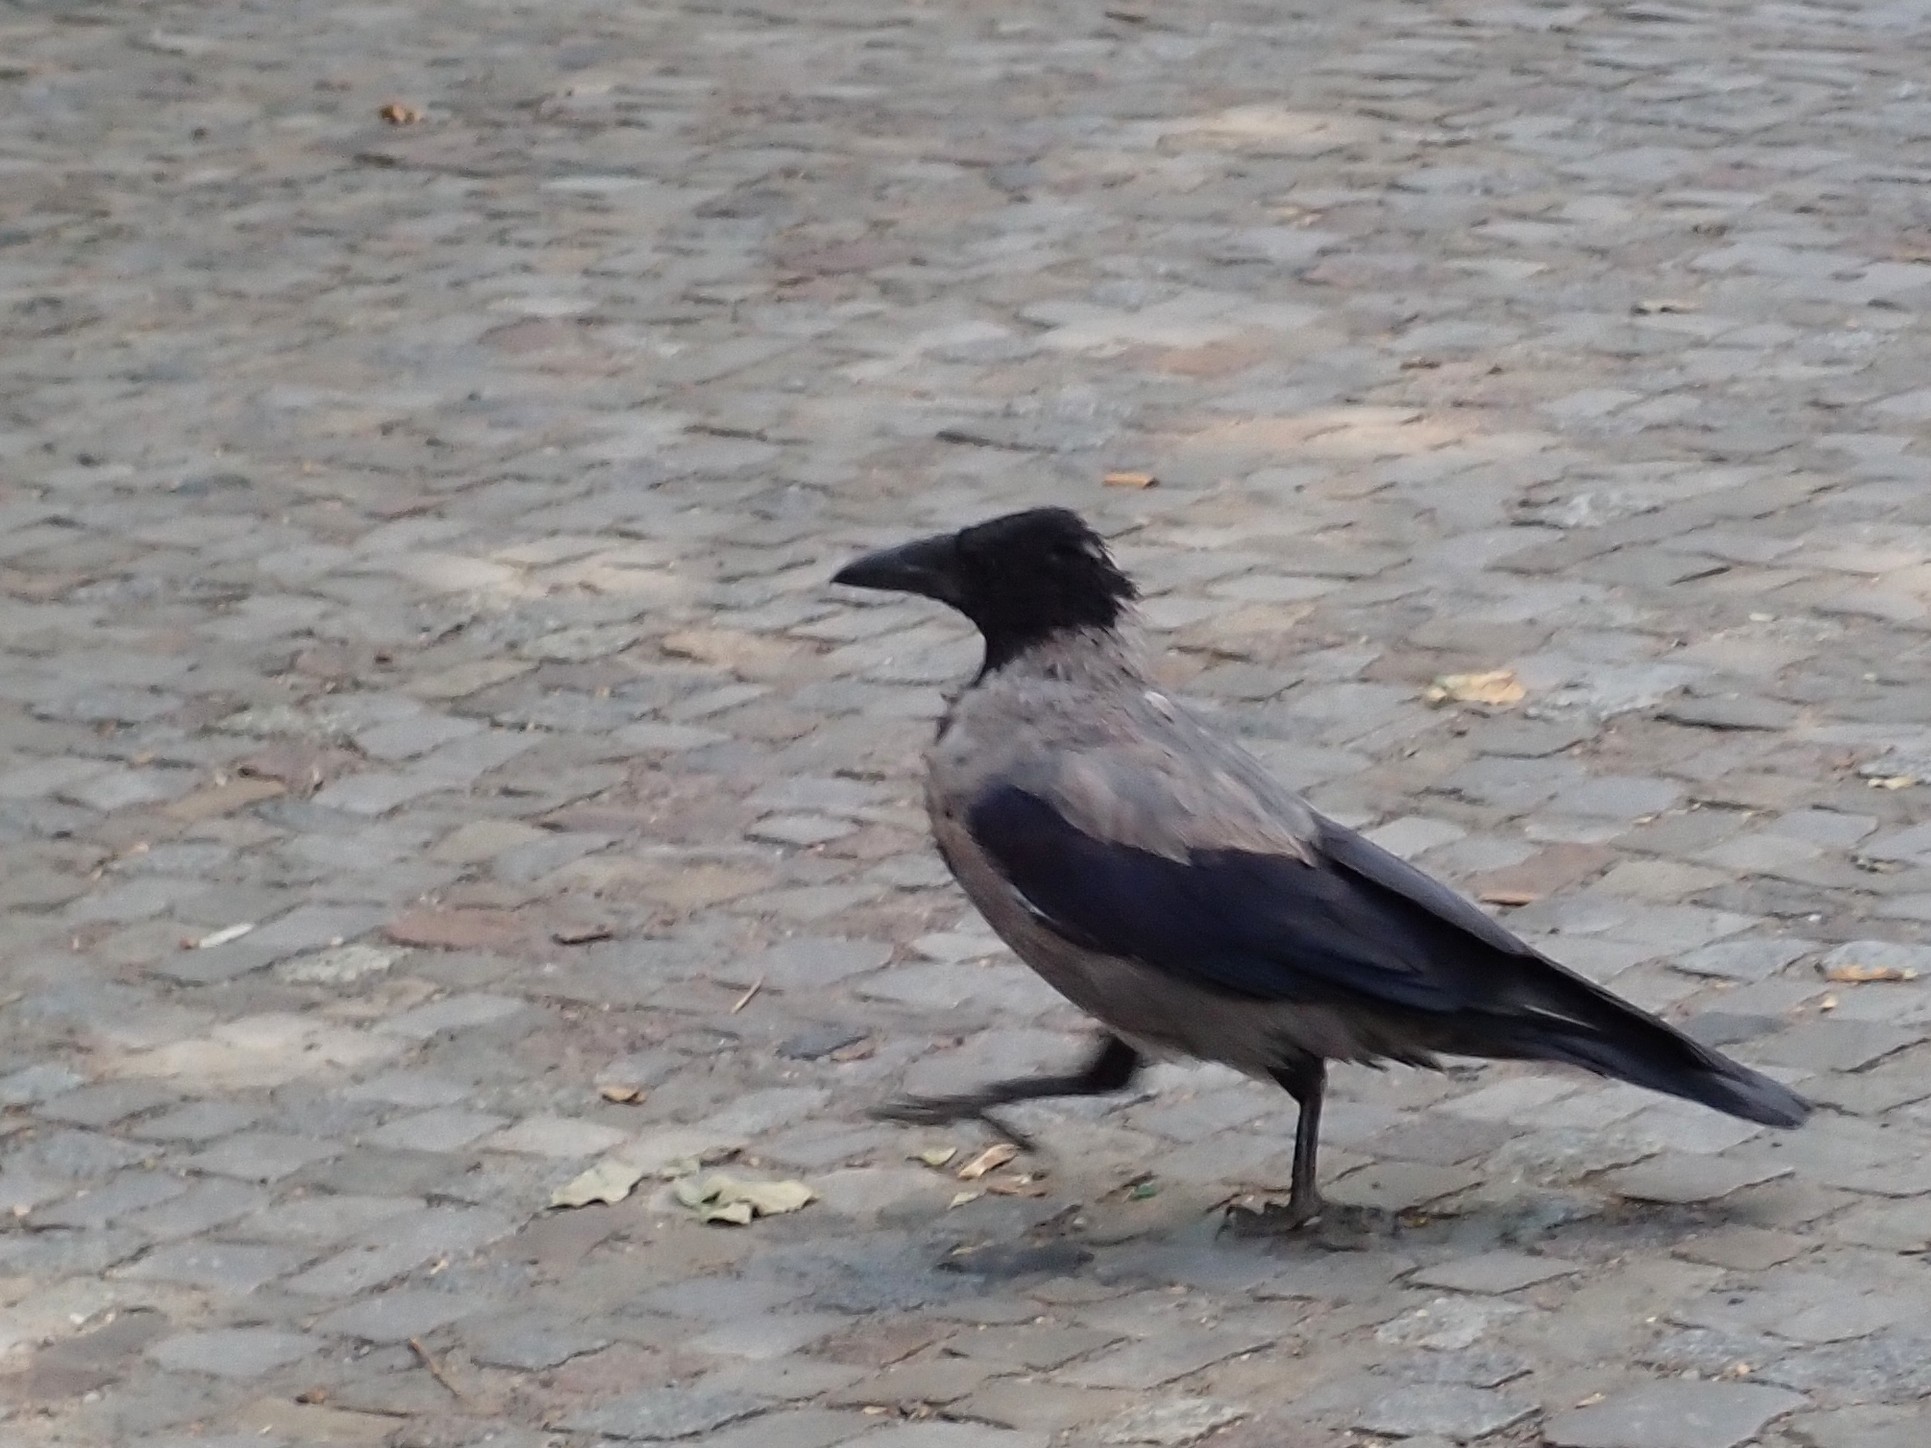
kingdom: Animalia
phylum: Chordata
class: Aves
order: Passeriformes
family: Corvidae
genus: Corvus
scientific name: Corvus cornix
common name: Hooded crow
